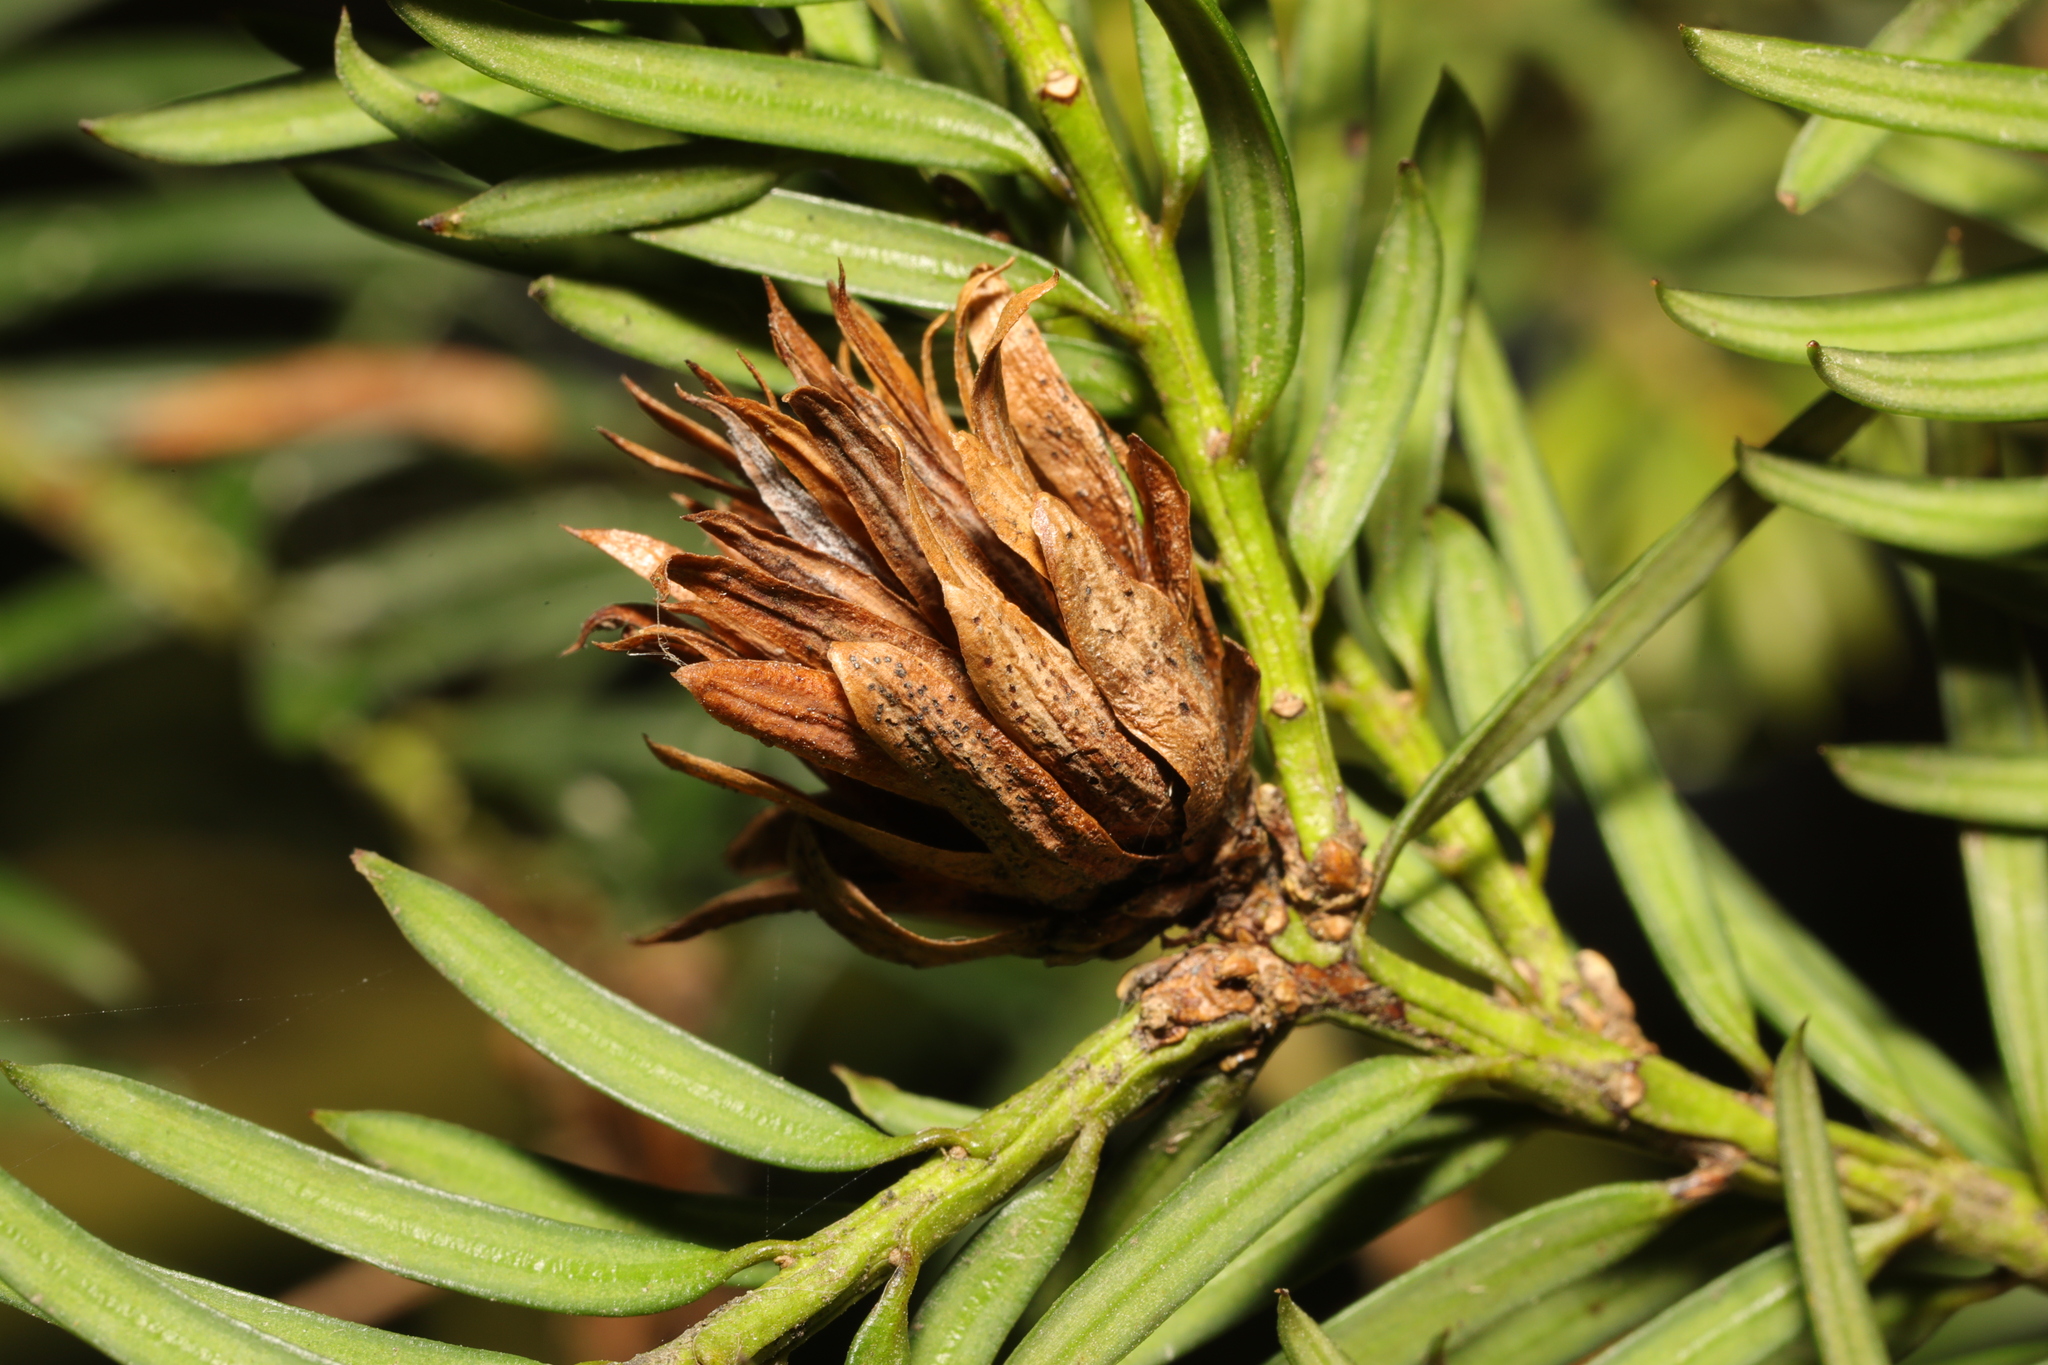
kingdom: Animalia
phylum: Arthropoda
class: Insecta
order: Diptera
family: Cecidomyiidae
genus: Taxomyia
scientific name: Taxomyia taxi
